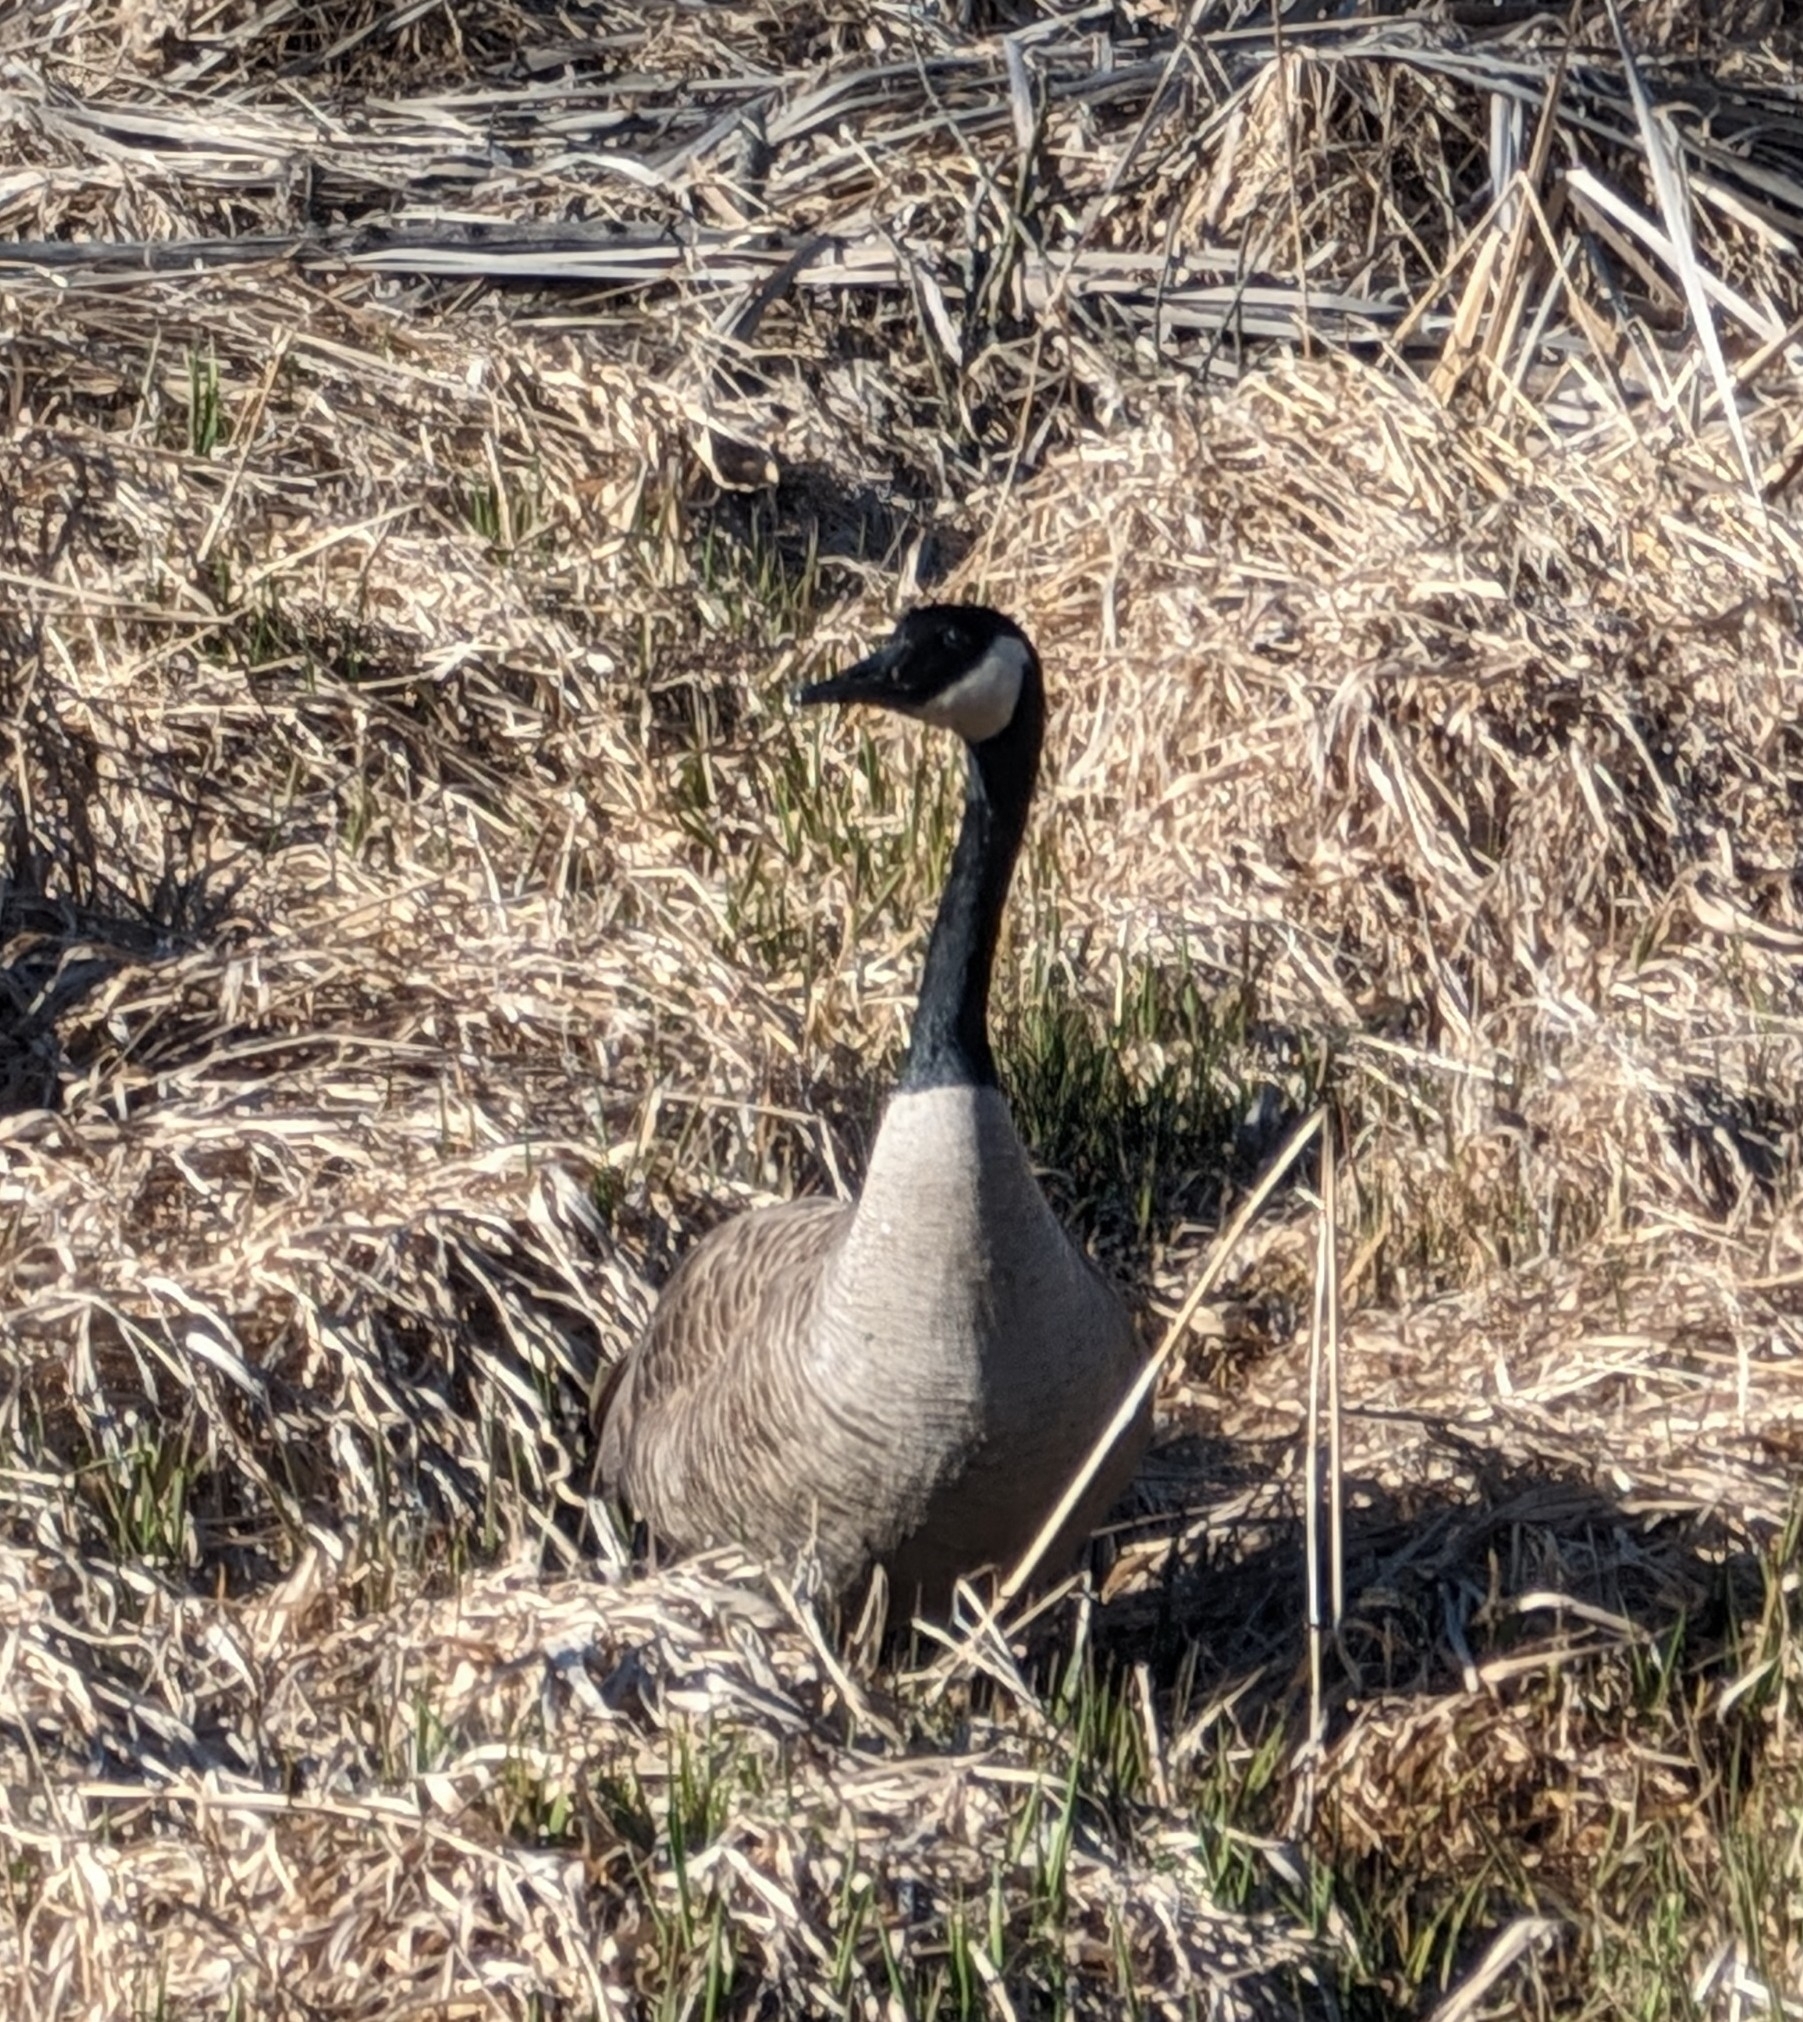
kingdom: Animalia
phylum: Chordata
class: Aves
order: Anseriformes
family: Anatidae
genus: Branta
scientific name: Branta canadensis
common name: Canada goose
